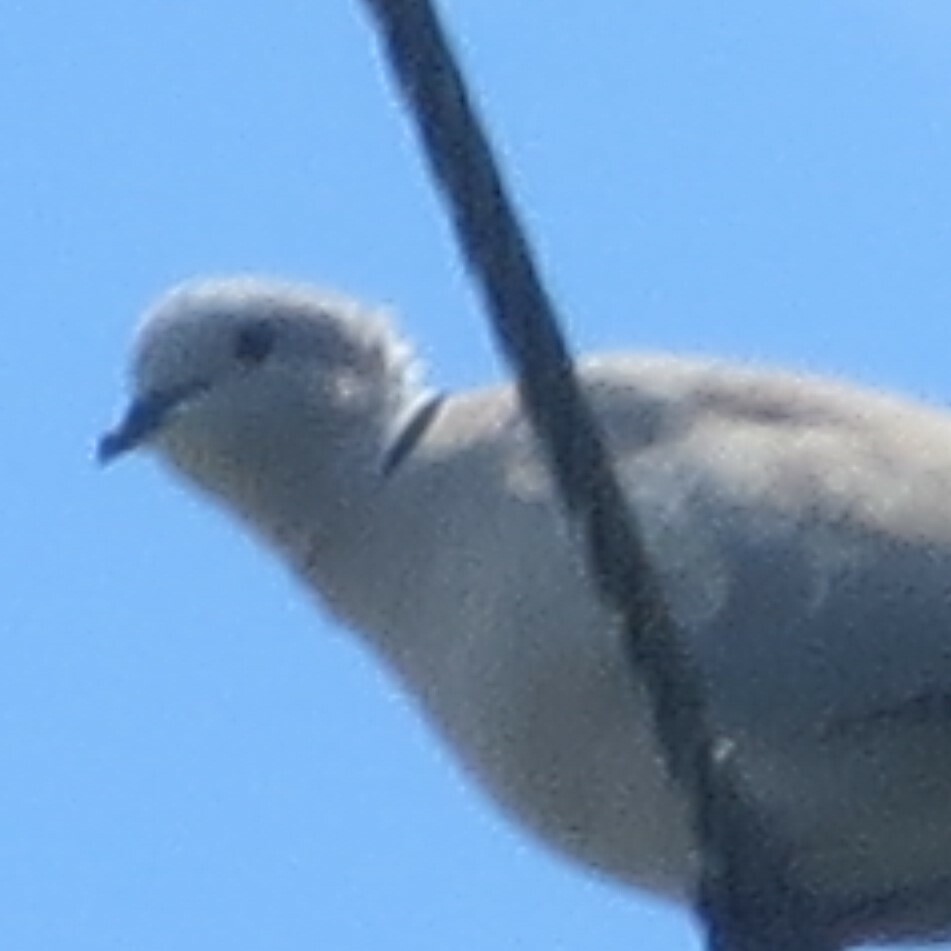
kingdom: Animalia
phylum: Chordata
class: Aves
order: Columbiformes
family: Columbidae
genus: Streptopelia
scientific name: Streptopelia decaocto
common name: Eurasian collared dove
